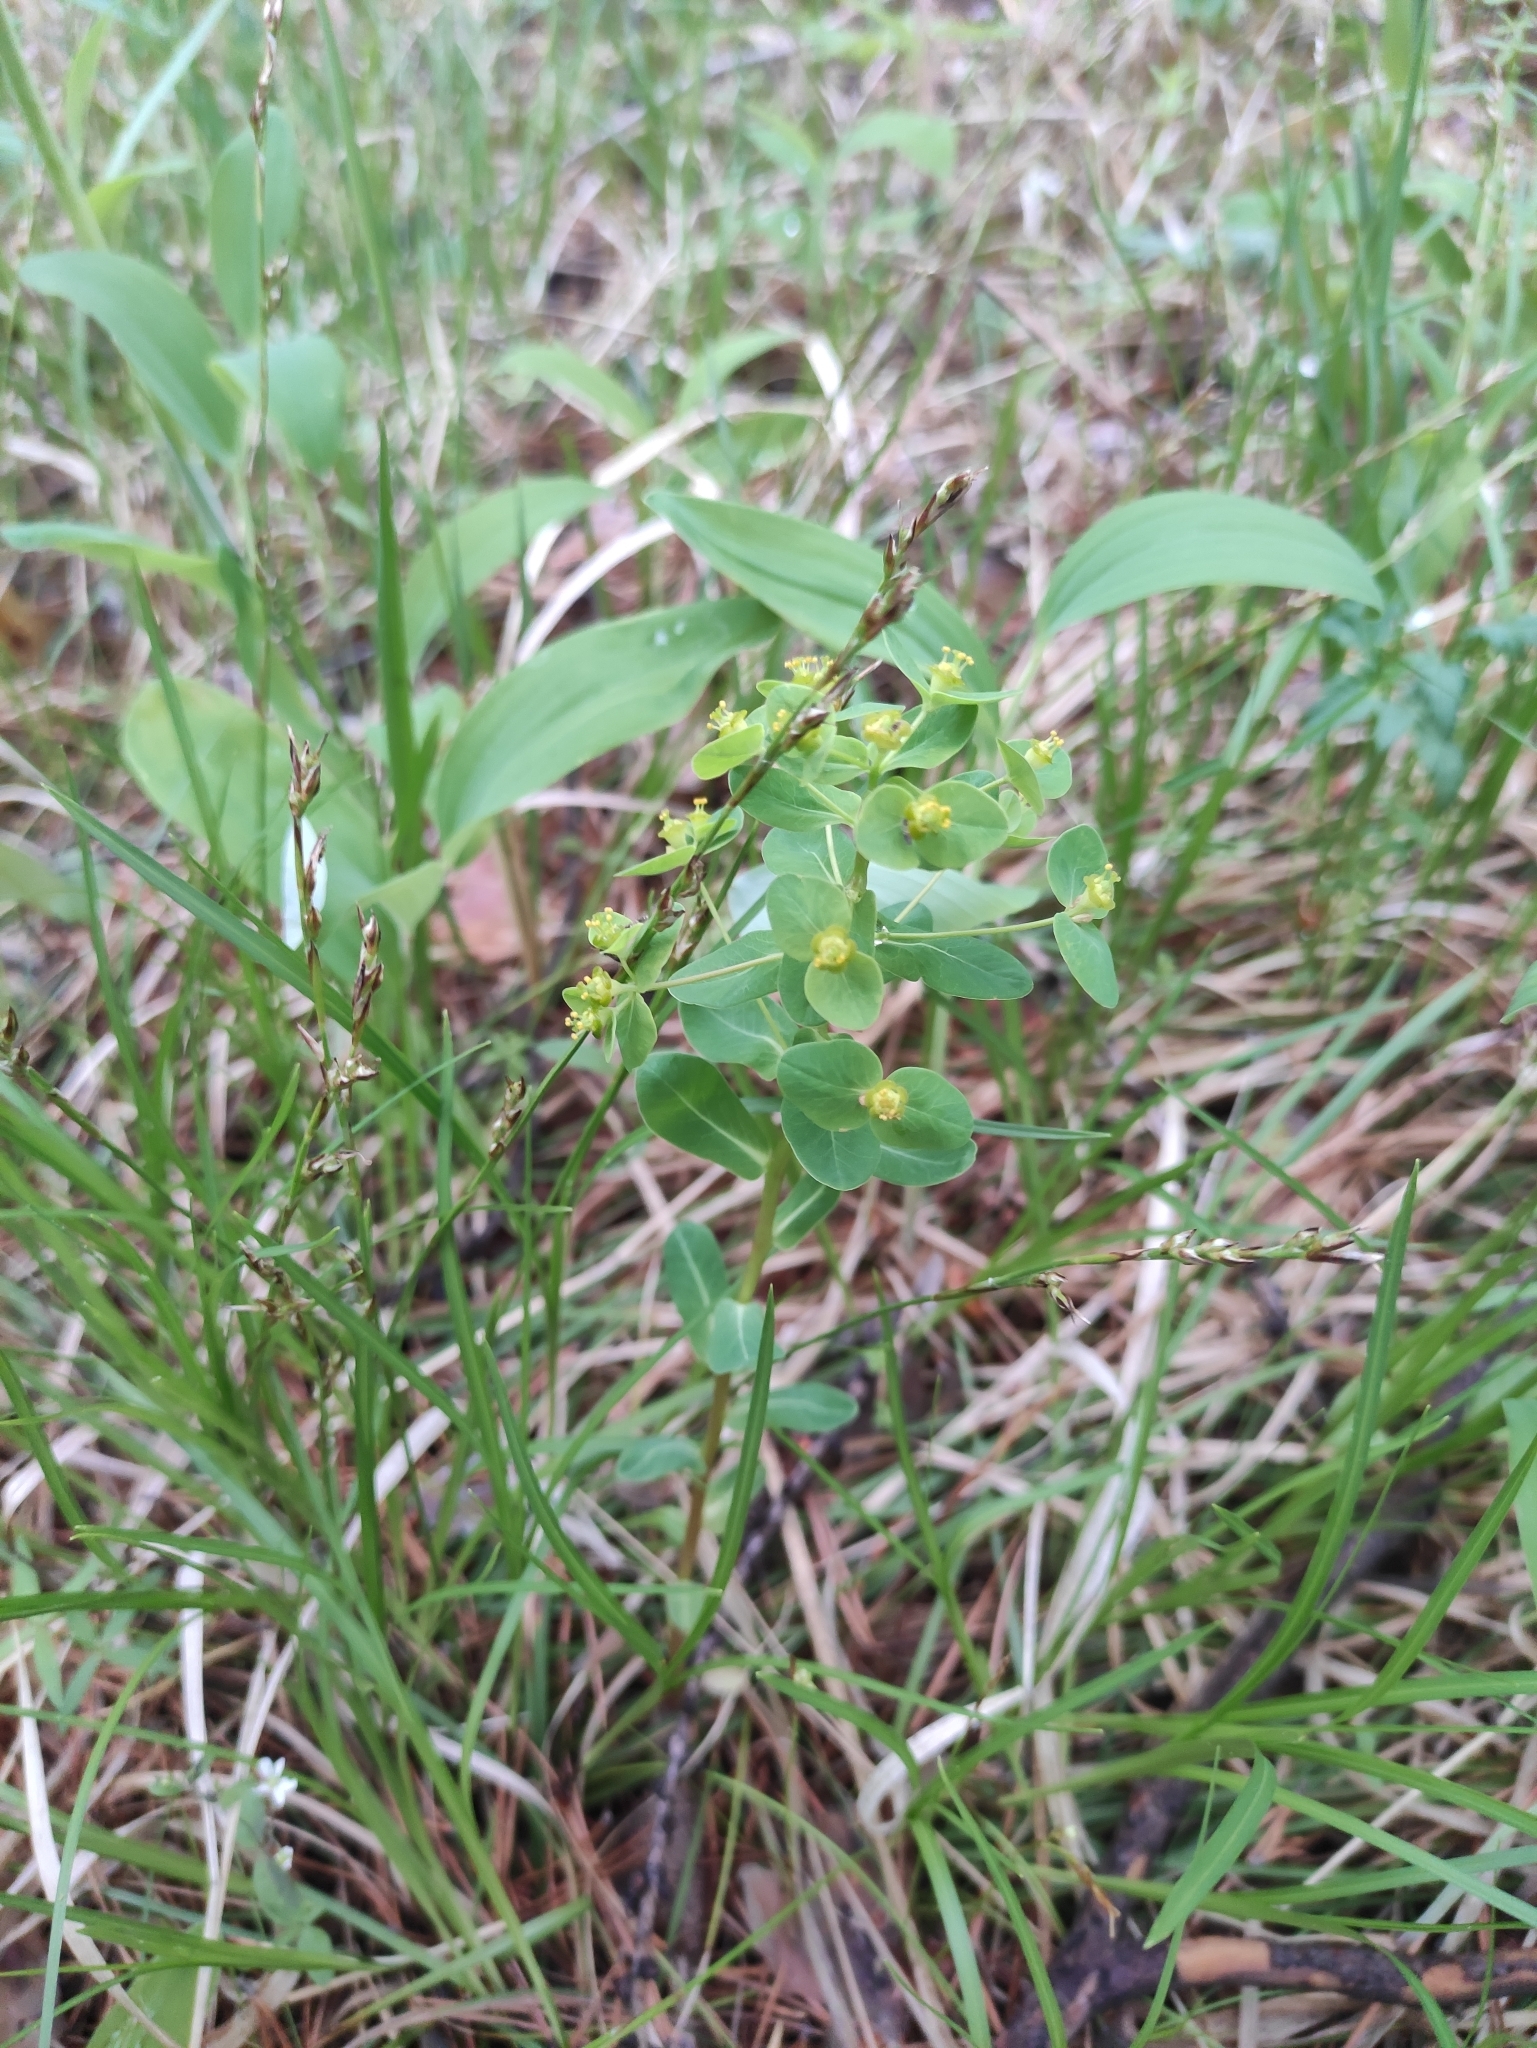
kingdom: Plantae
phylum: Tracheophyta
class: Magnoliopsida
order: Malpighiales
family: Euphorbiaceae
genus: Euphorbia
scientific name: Euphorbia jenisseiensis
